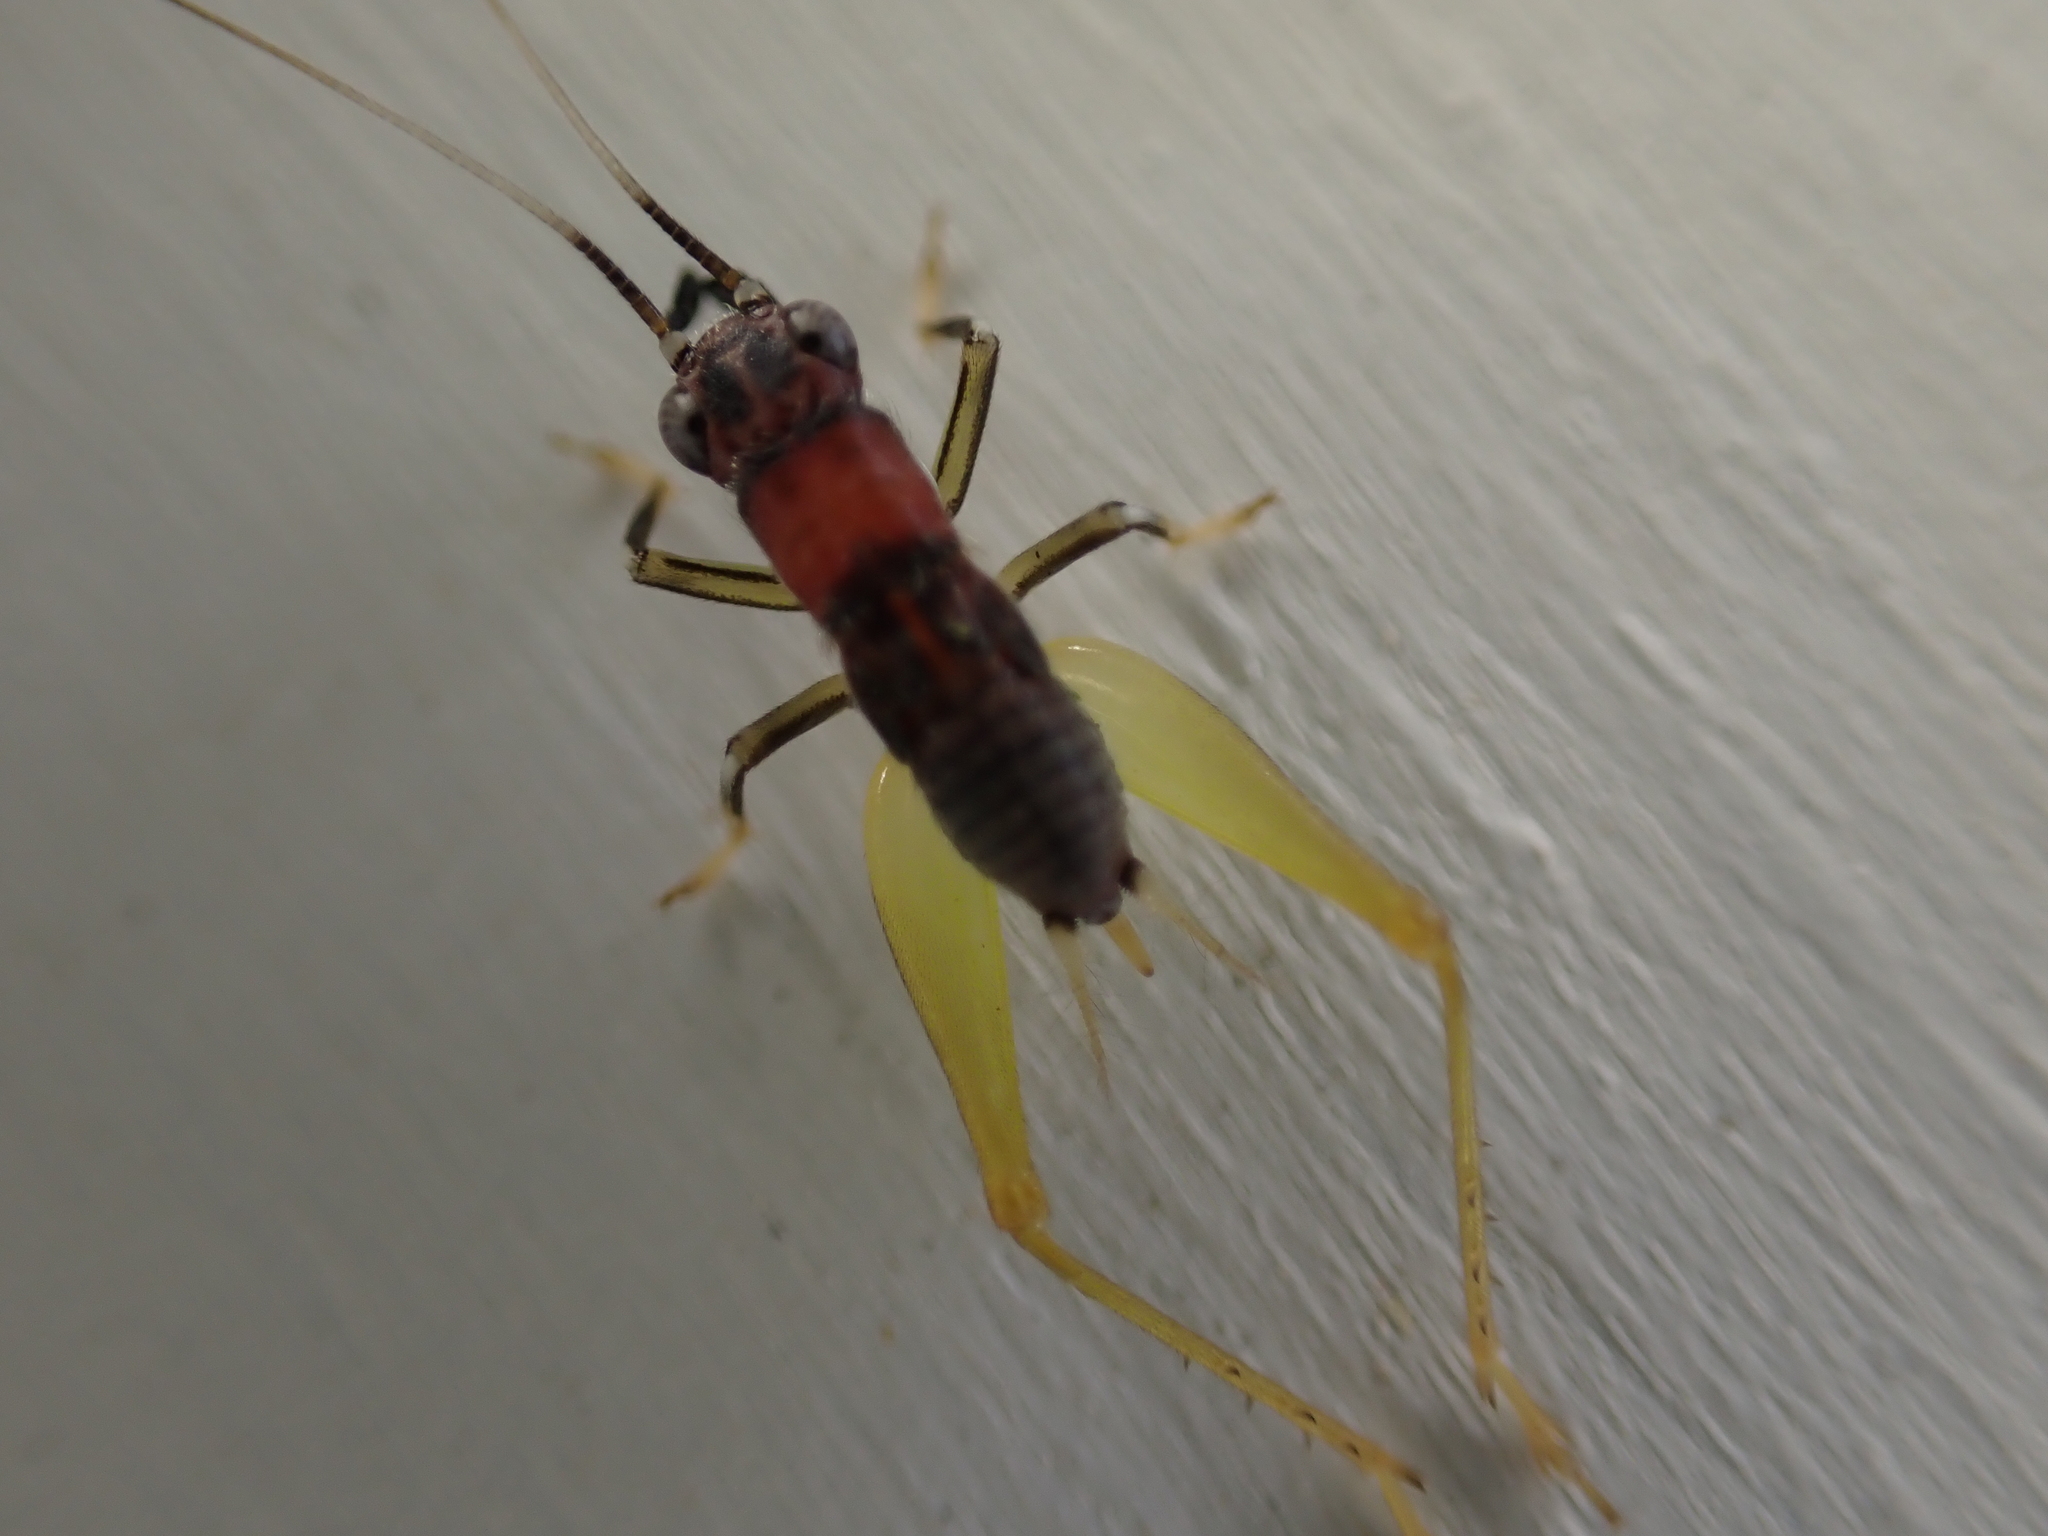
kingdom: Animalia
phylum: Arthropoda
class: Insecta
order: Orthoptera
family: Trigonidiidae
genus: Phyllopalpus
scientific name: Phyllopalpus pulchellus
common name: Handsome trig
